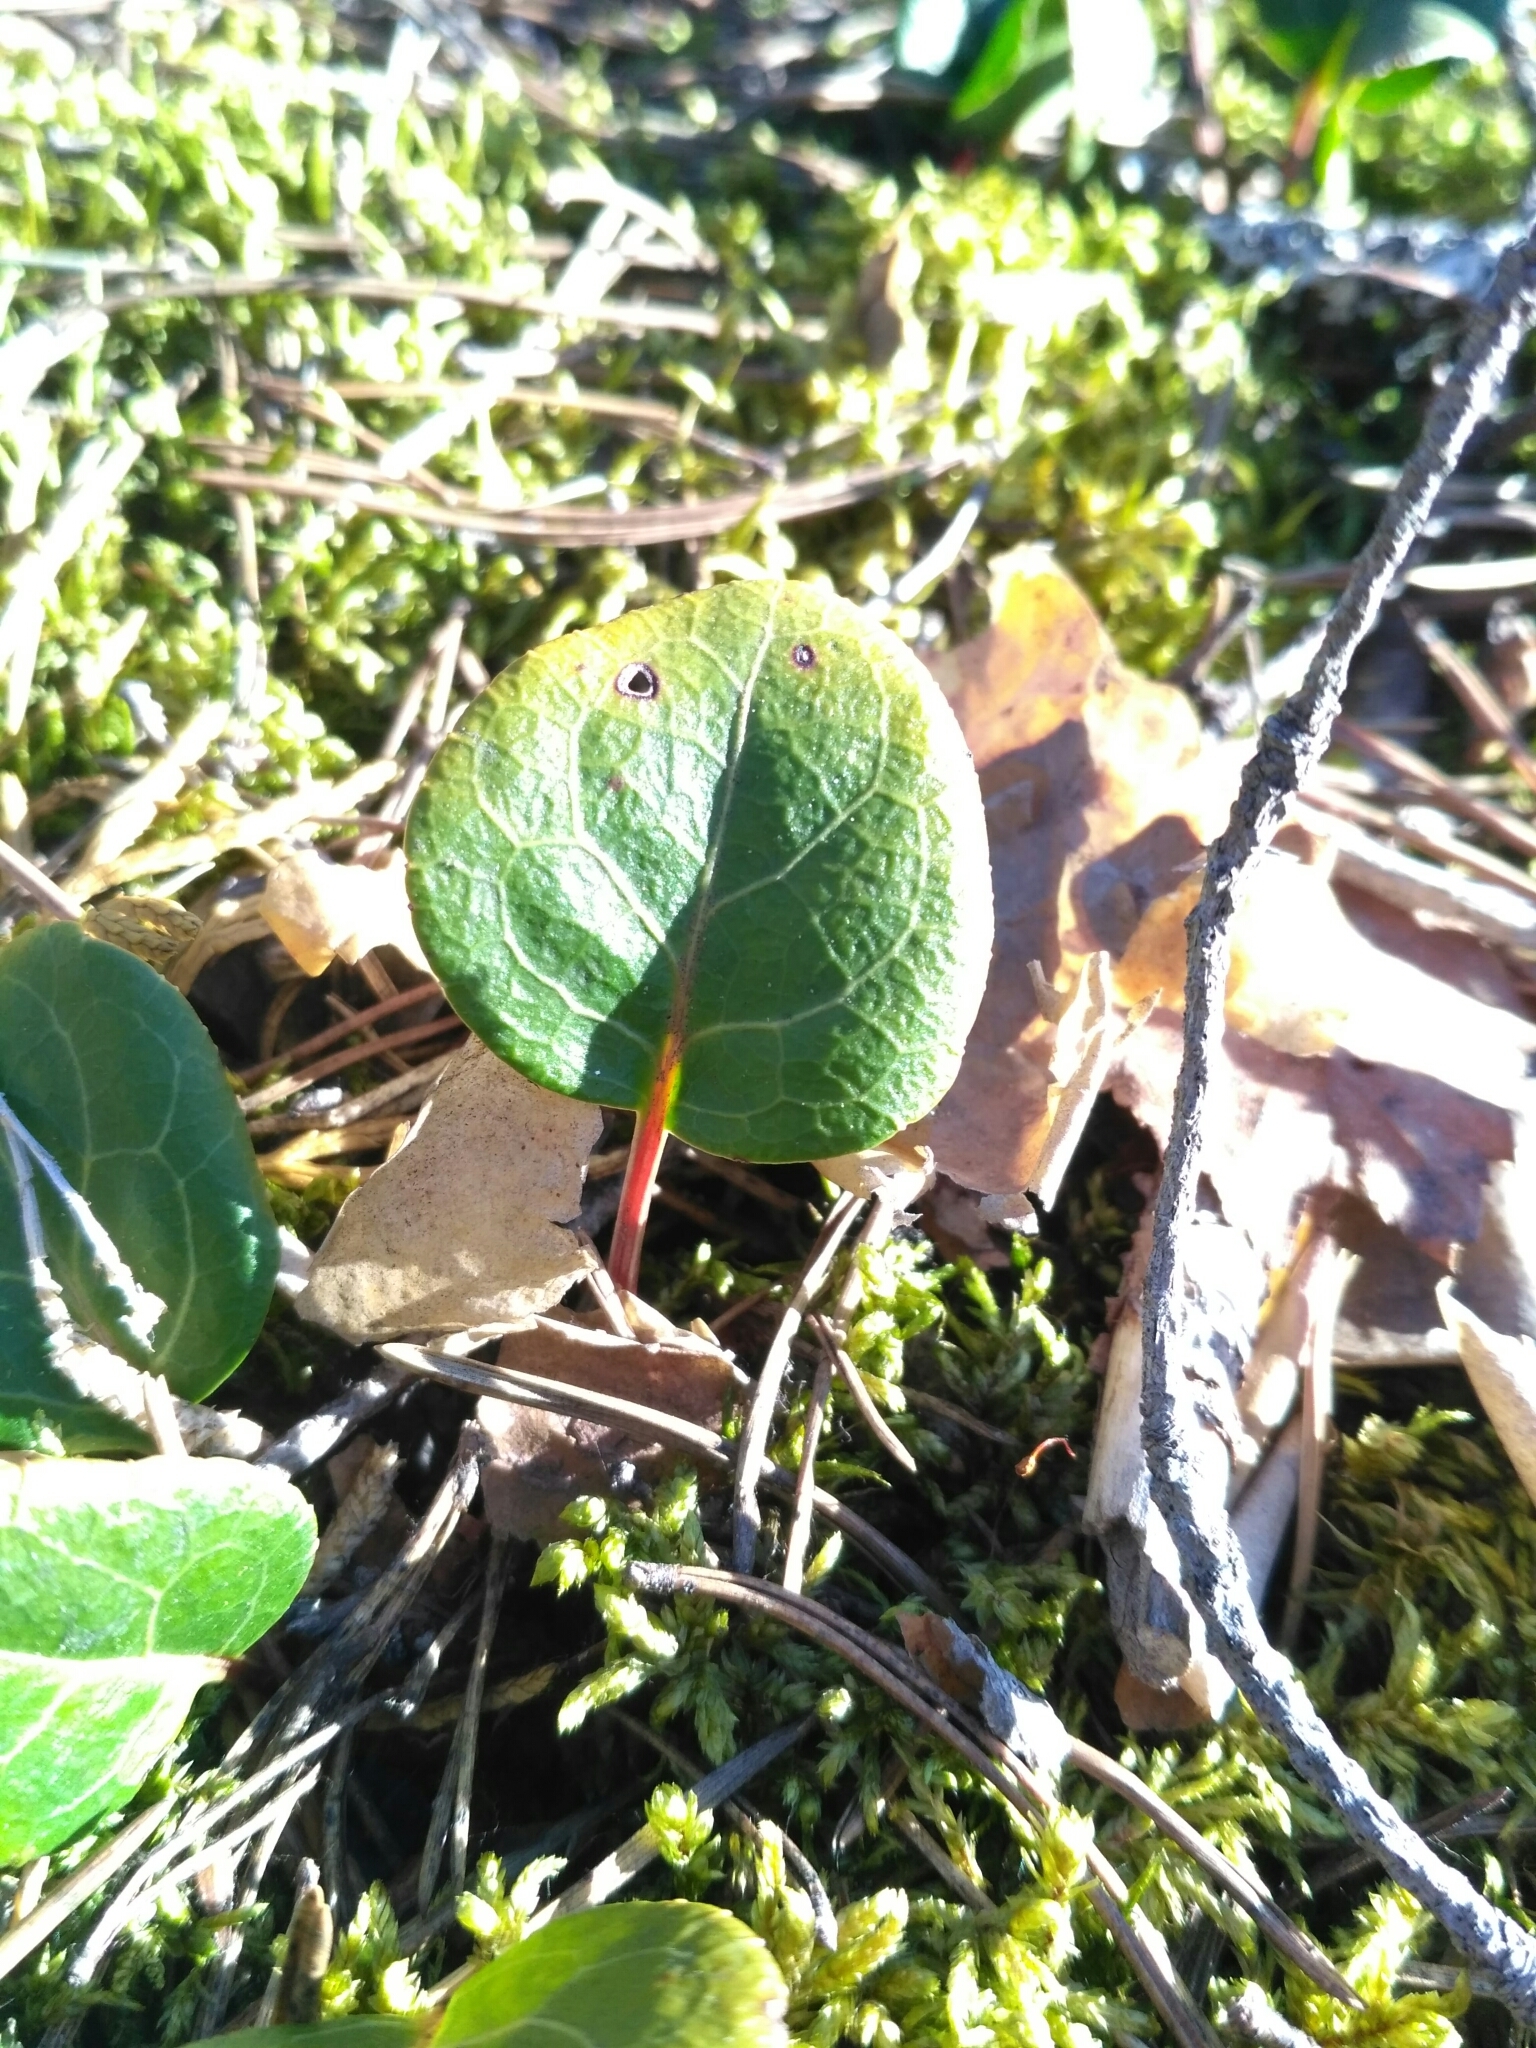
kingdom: Plantae
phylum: Tracheophyta
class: Magnoliopsida
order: Ericales
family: Ericaceae
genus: Pyrola
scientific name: Pyrola chlorantha
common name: Green wintergreen
